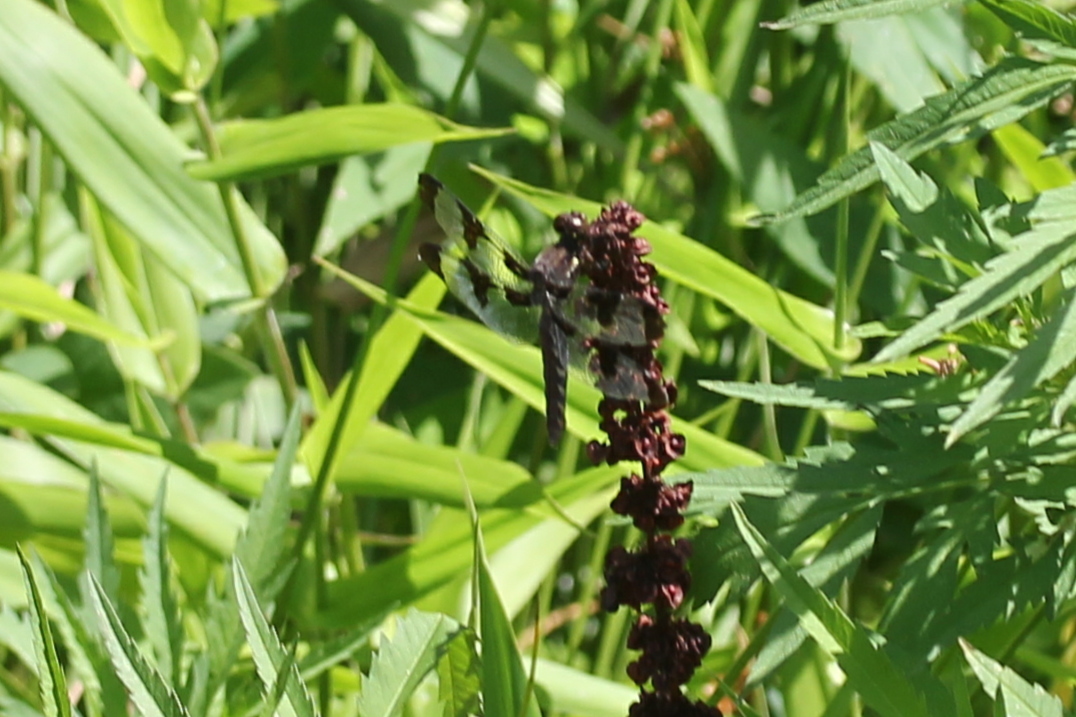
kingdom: Animalia
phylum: Arthropoda
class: Insecta
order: Odonata
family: Libellulidae
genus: Plathemis
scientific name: Plathemis lydia
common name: Common whitetail
